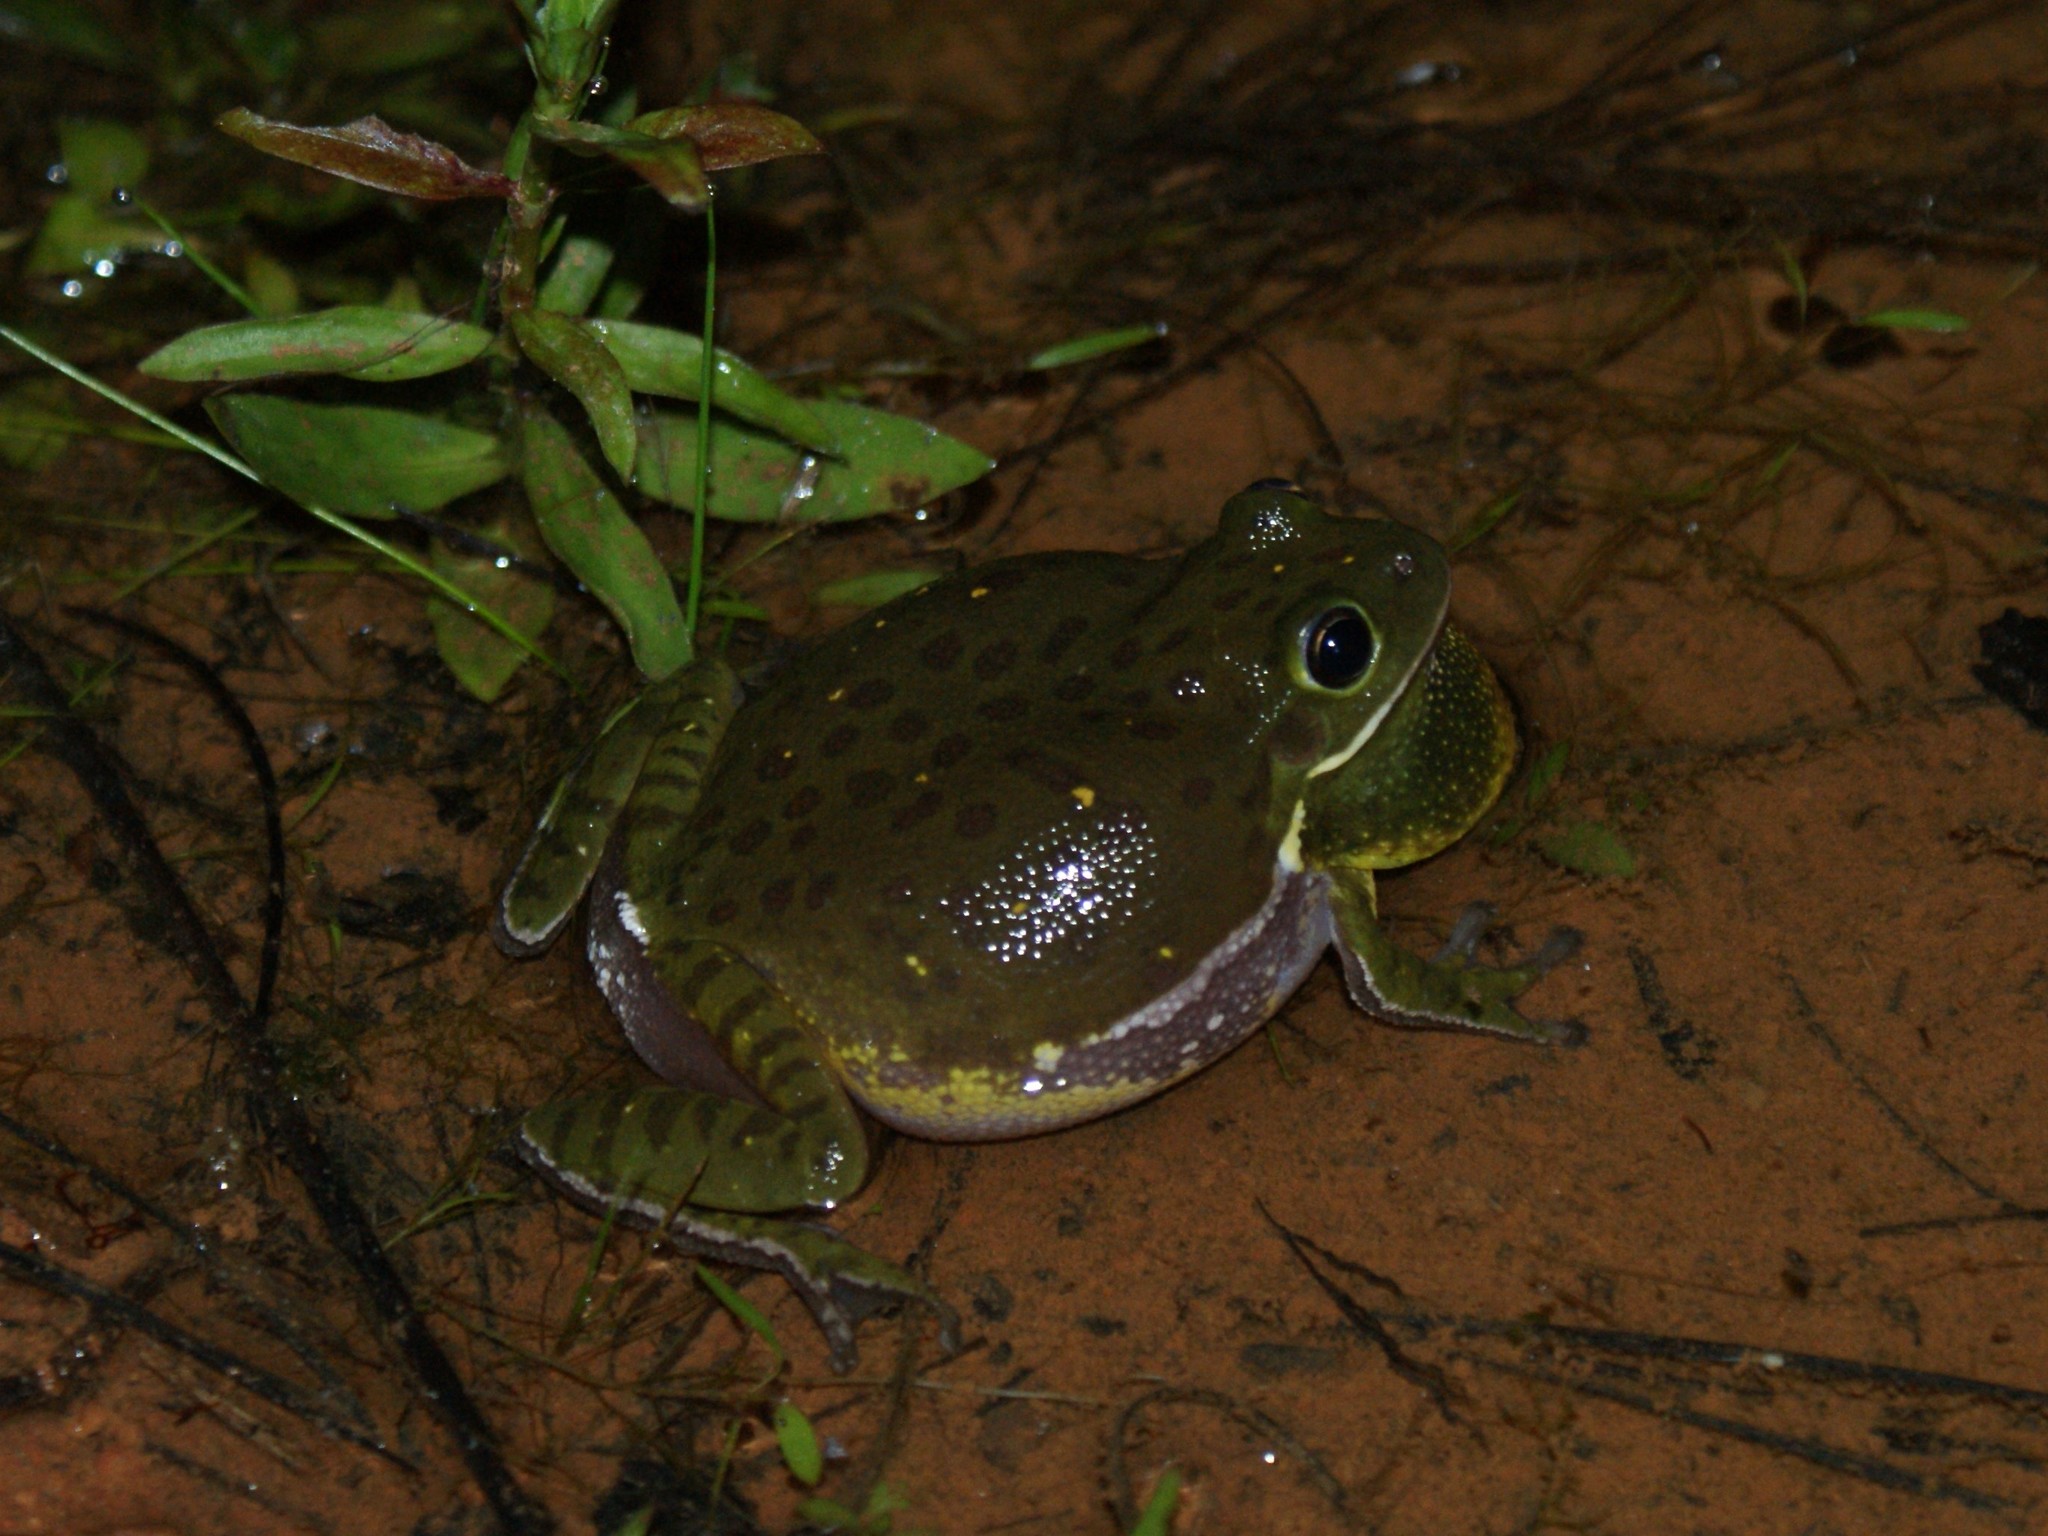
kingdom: Animalia
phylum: Chordata
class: Amphibia
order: Anura
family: Hylidae
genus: Dryophytes
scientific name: Dryophytes gratiosus
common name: Barking treefrog
